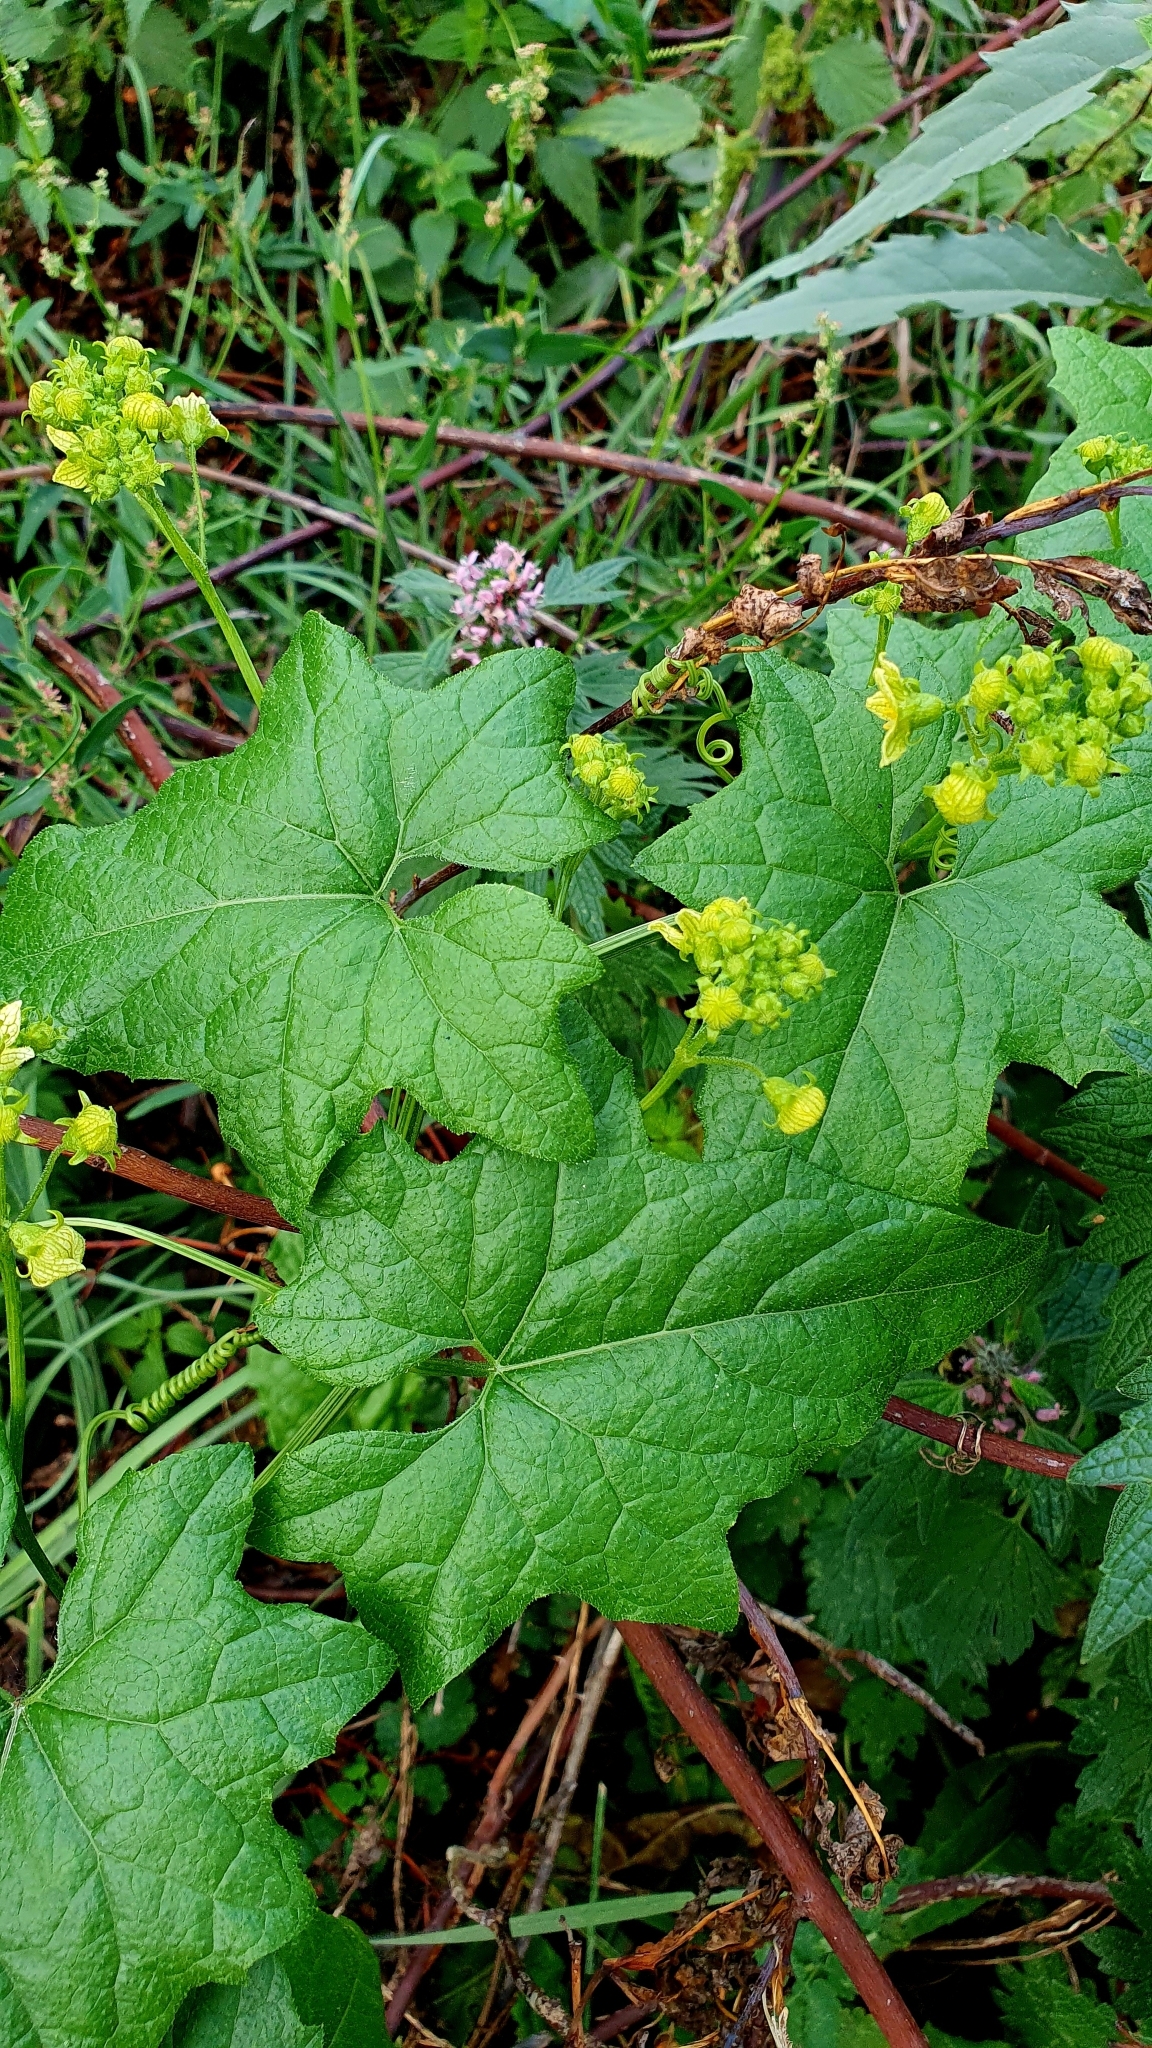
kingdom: Plantae
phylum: Tracheophyta
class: Magnoliopsida
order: Cucurbitales
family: Cucurbitaceae
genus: Bryonia
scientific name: Bryonia alba
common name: White bryony
